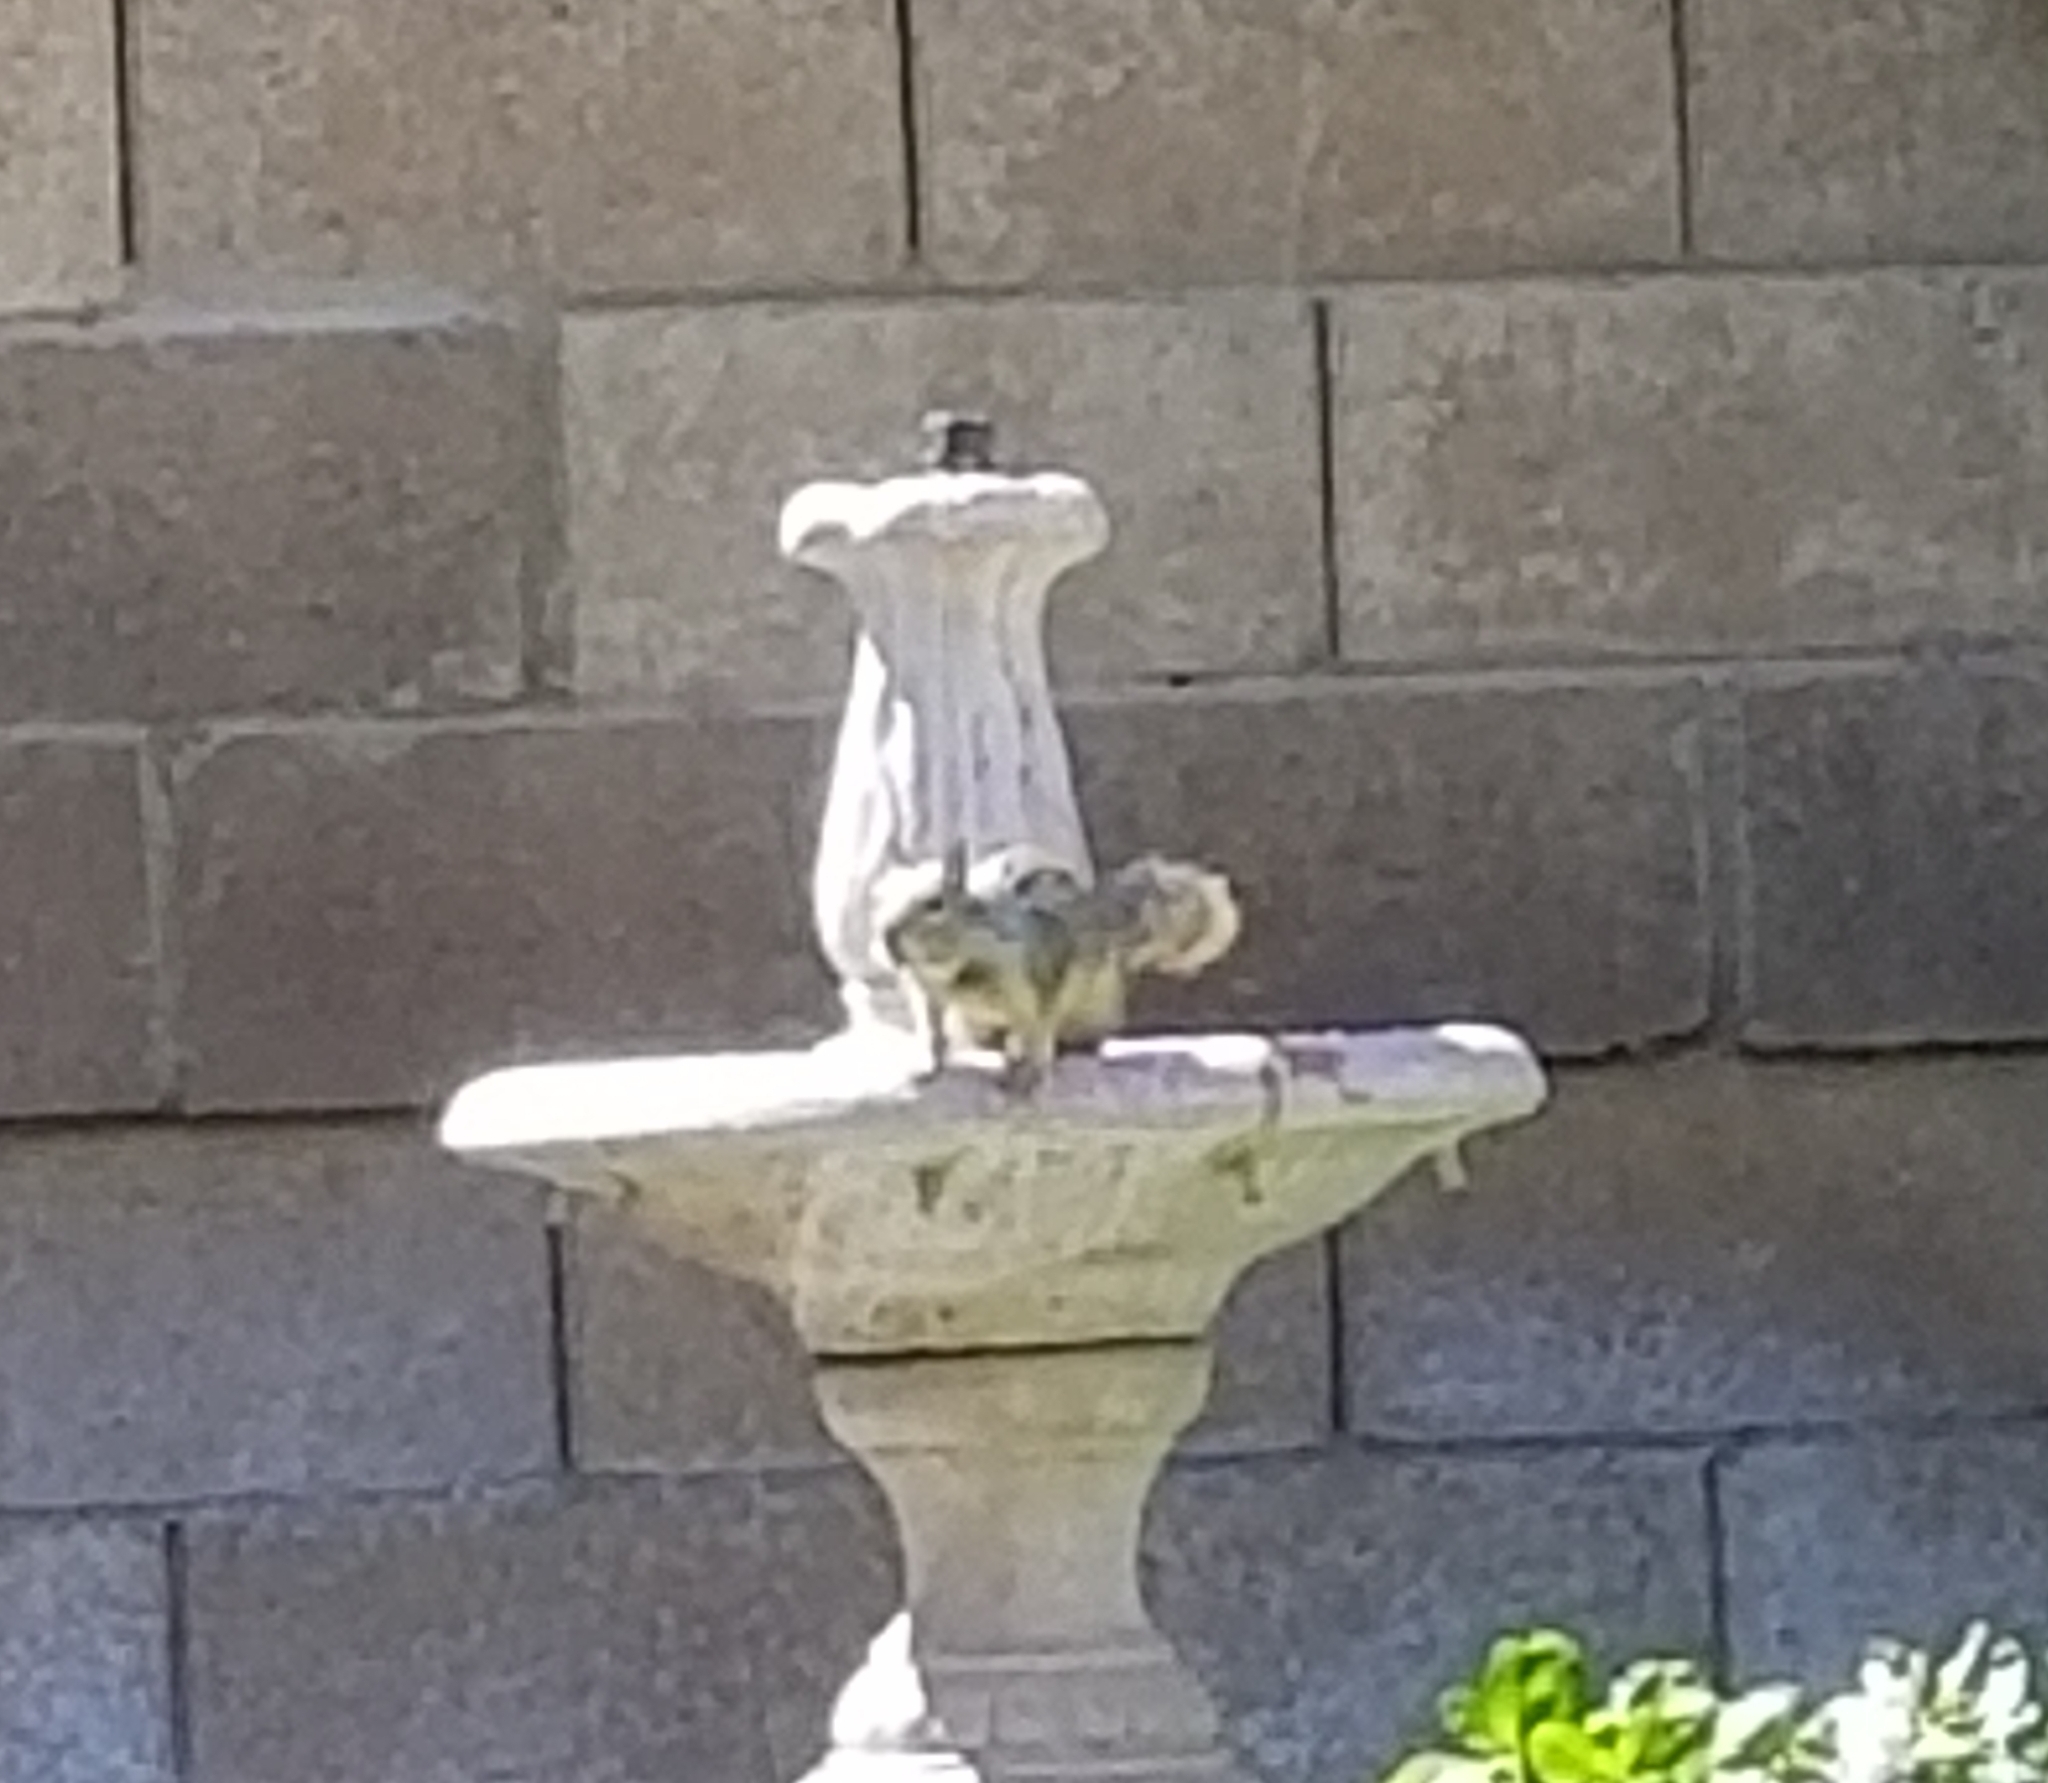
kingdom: Animalia
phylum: Chordata
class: Mammalia
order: Rodentia
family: Sciuridae
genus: Otospermophilus
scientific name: Otospermophilus beecheyi
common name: California ground squirrel
